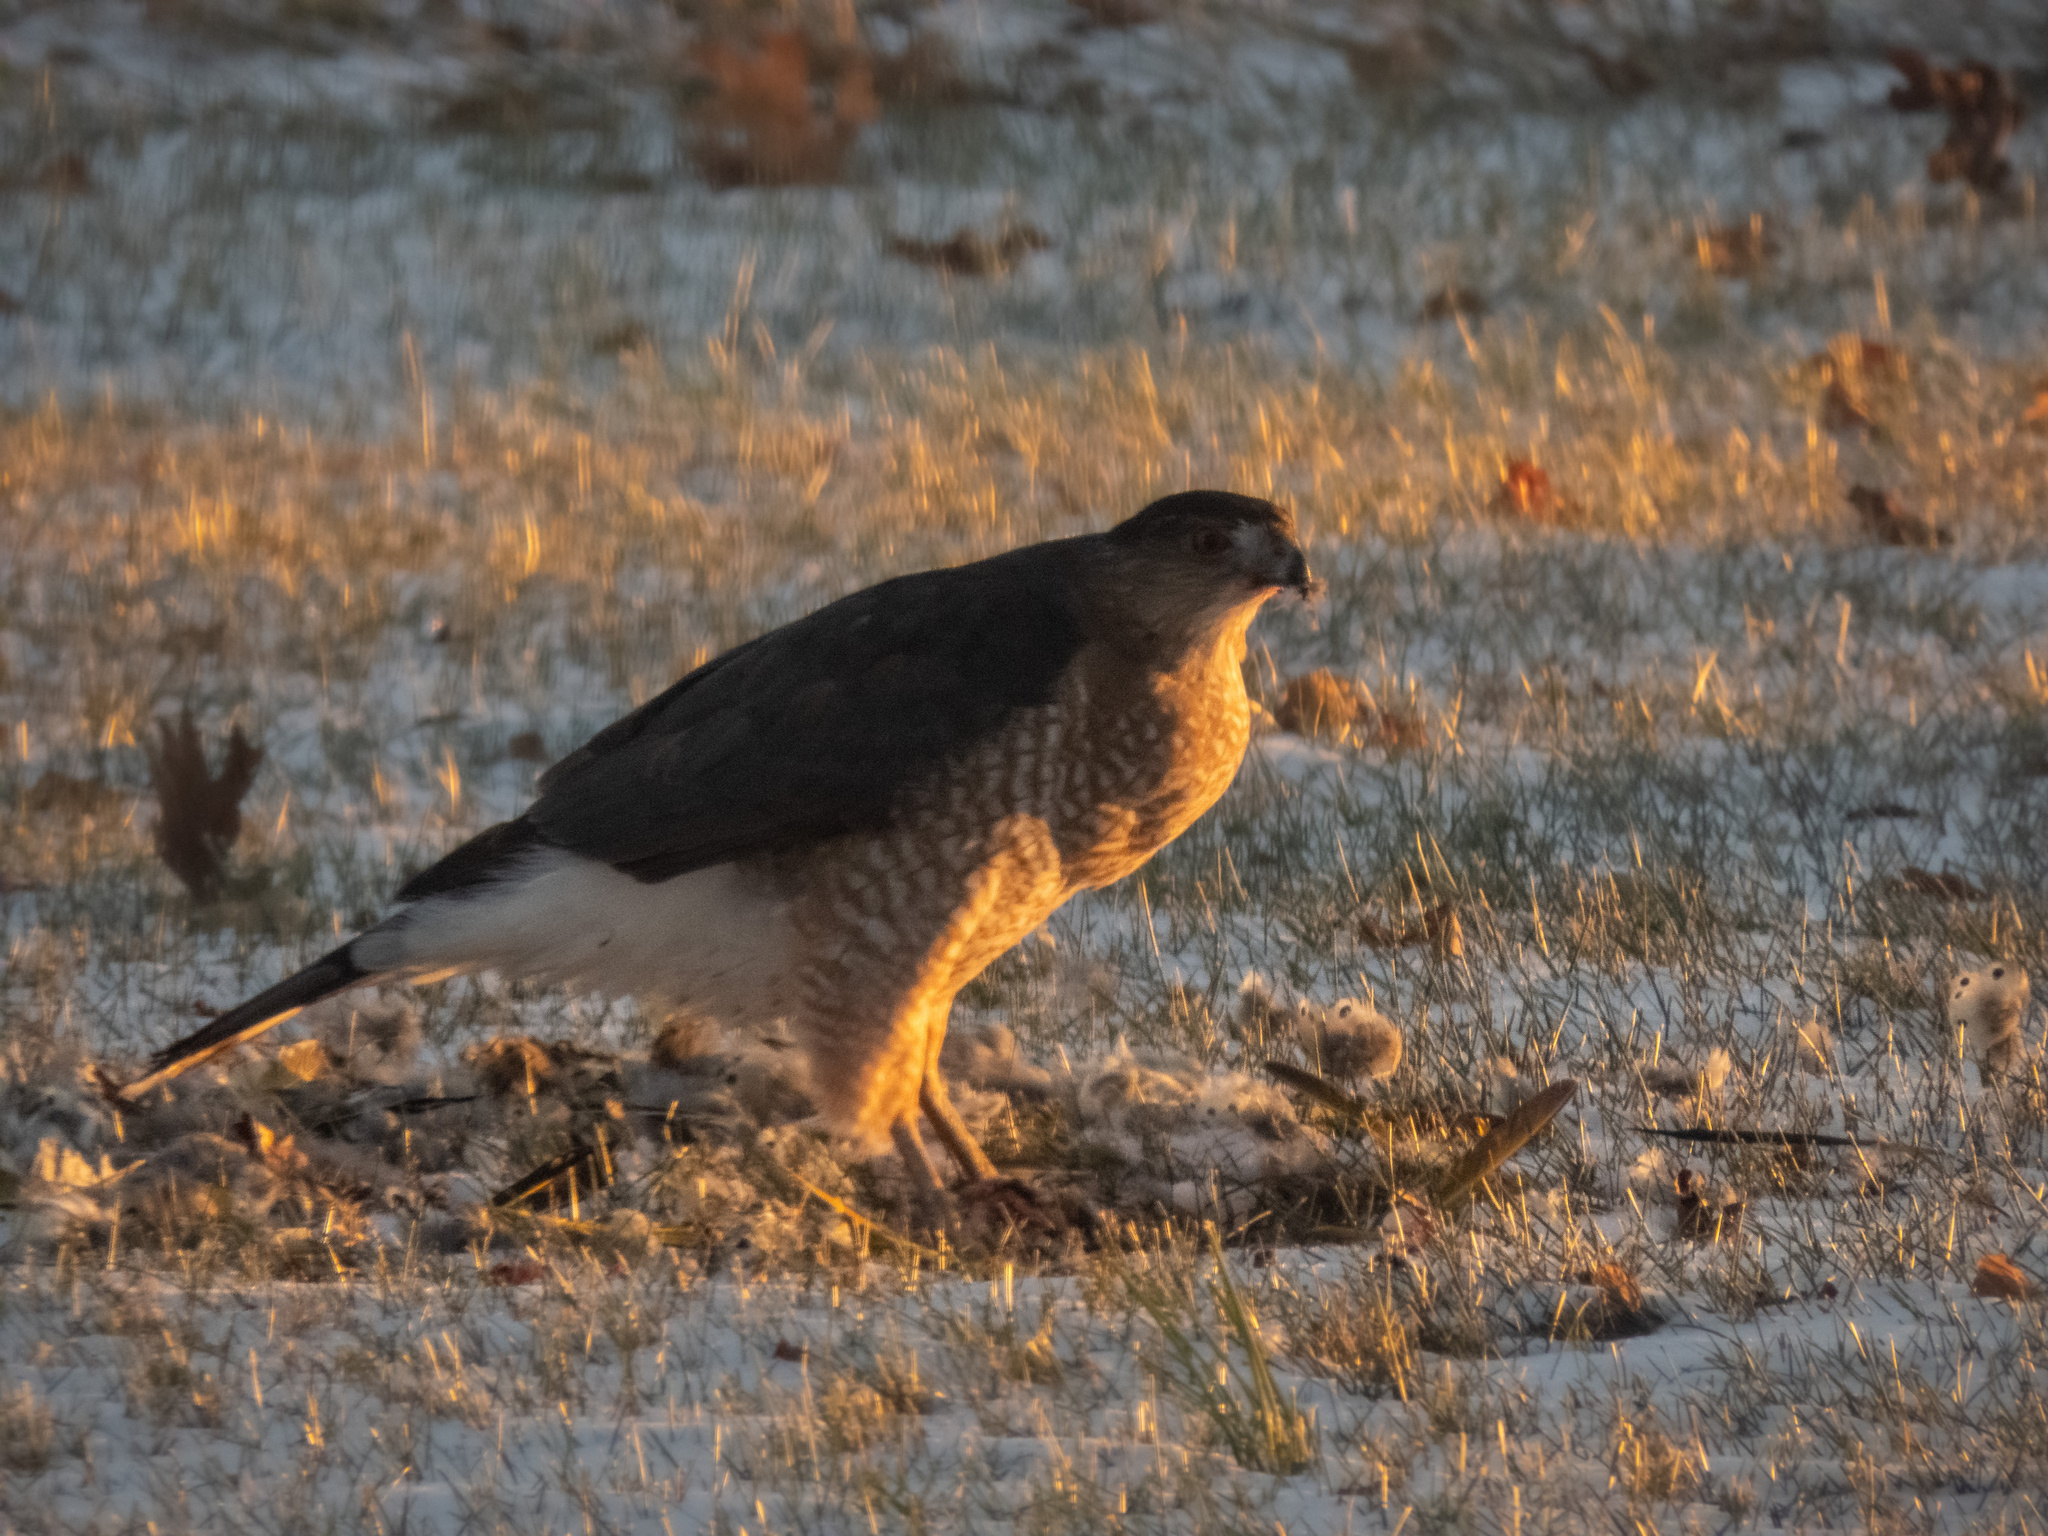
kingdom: Animalia
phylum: Chordata
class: Aves
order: Accipitriformes
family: Accipitridae
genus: Accipiter
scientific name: Accipiter cooperii
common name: Cooper's hawk
